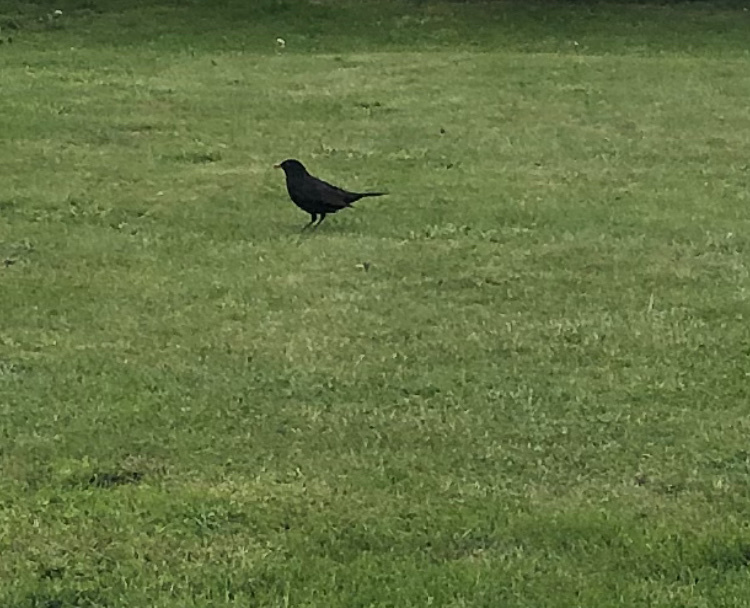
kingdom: Animalia
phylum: Chordata
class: Aves
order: Passeriformes
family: Turdidae
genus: Turdus
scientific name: Turdus merula
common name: Common blackbird
